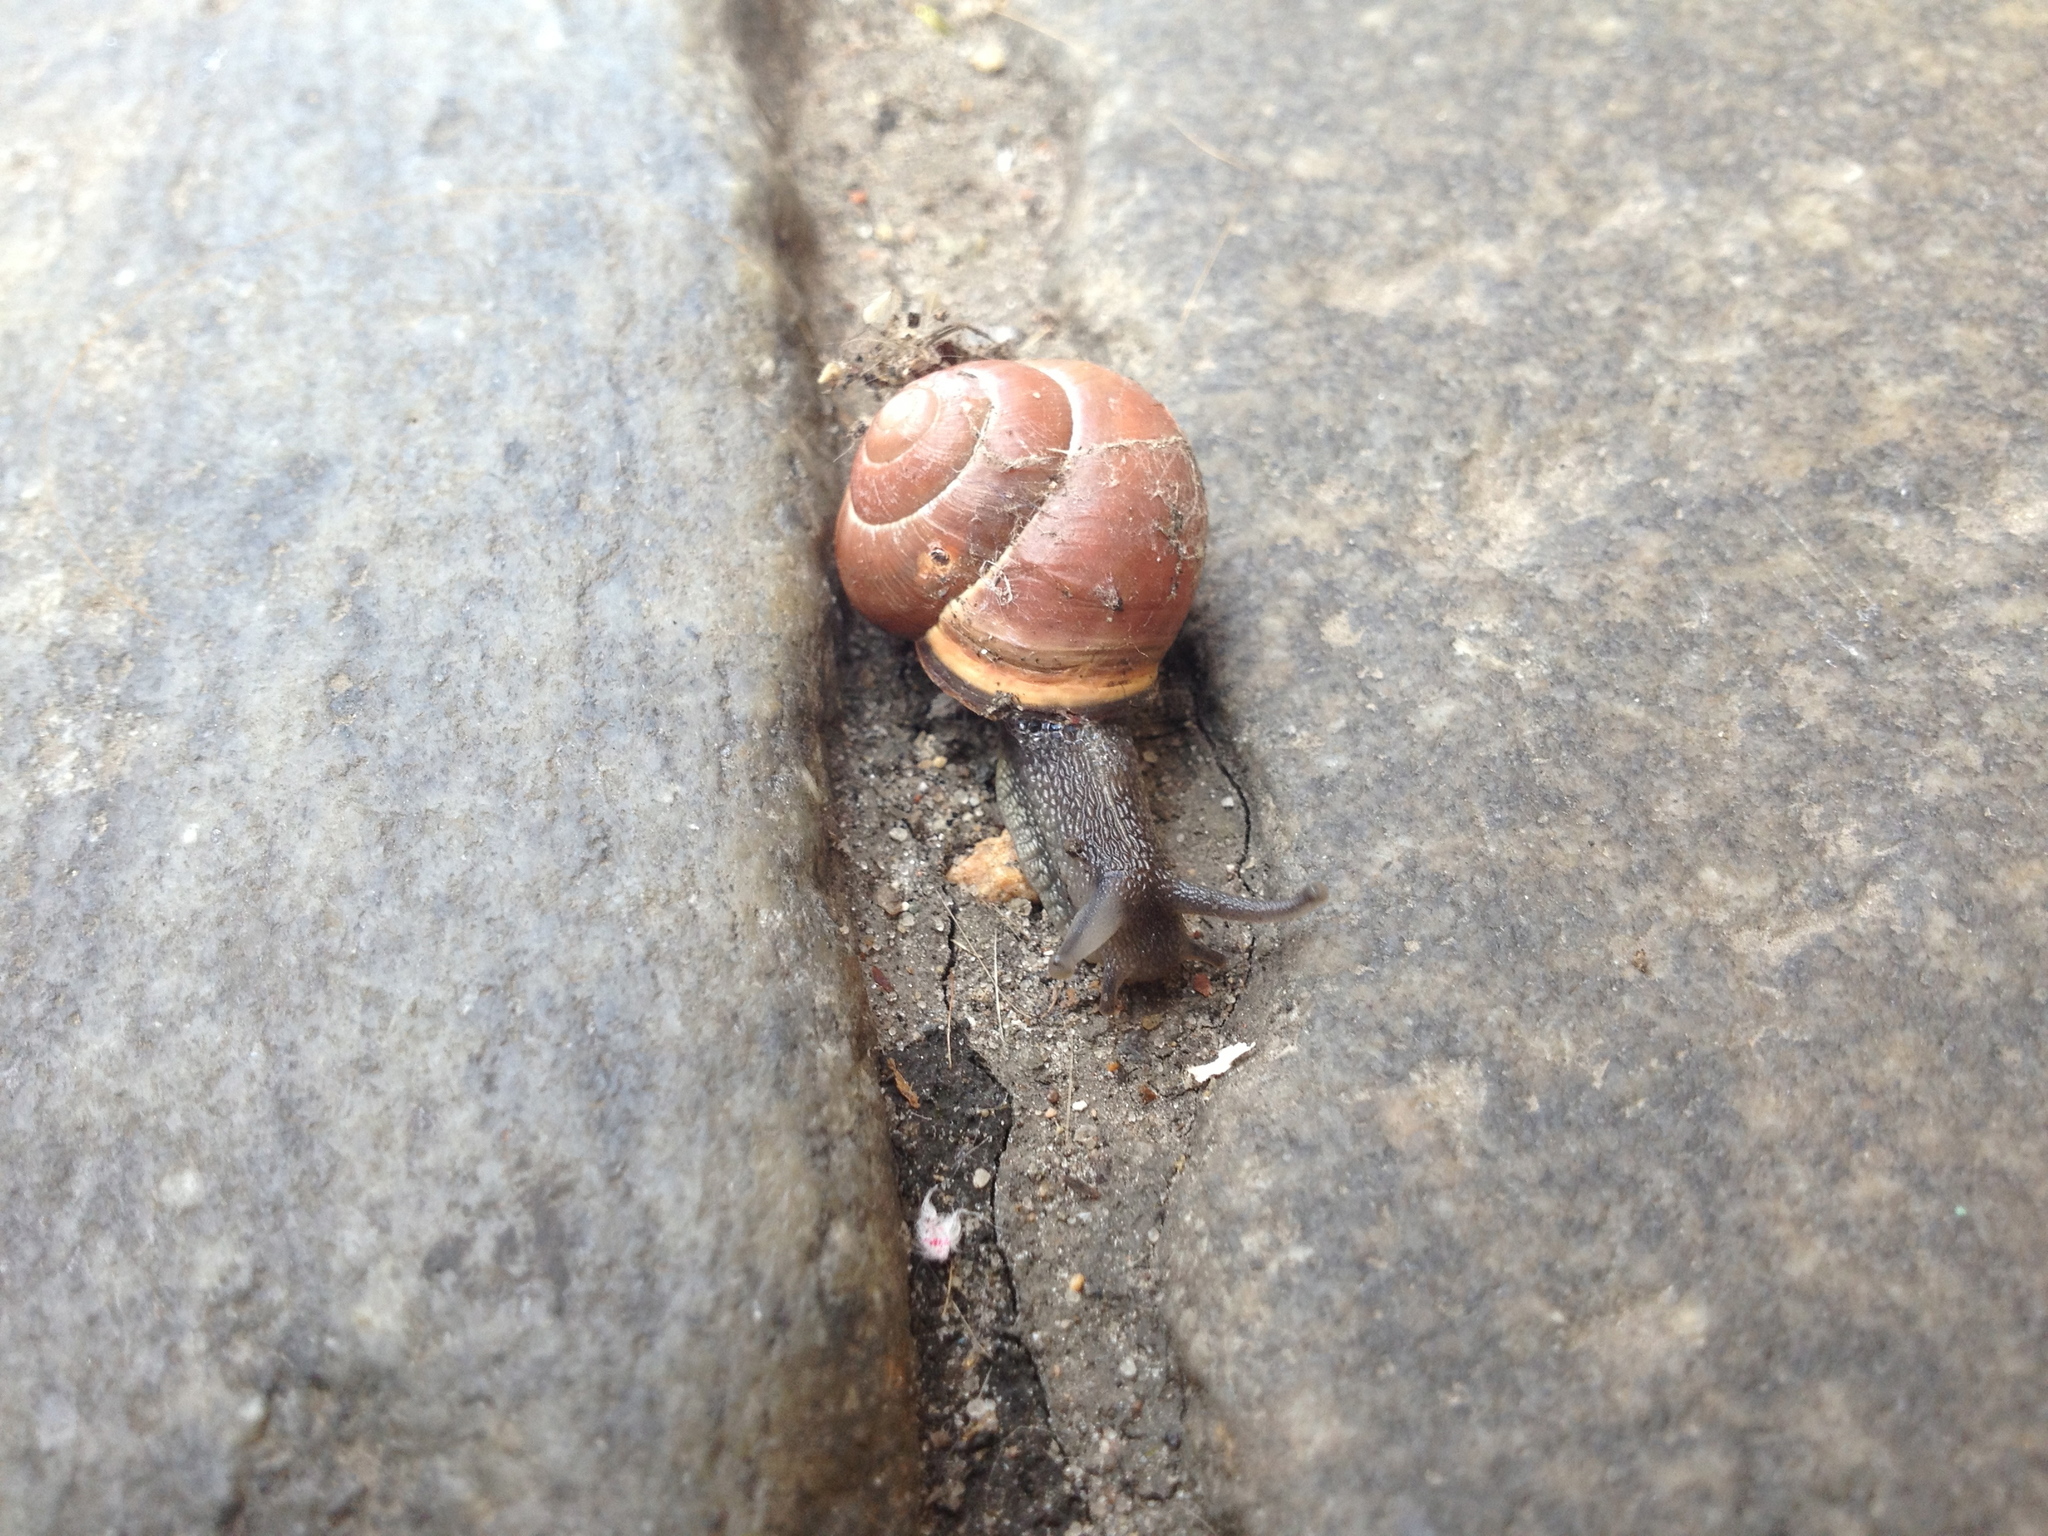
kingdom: Animalia
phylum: Mollusca
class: Gastropoda
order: Stylommatophora
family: Helicidae
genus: Cepaea
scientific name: Cepaea nemoralis
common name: Grovesnail
